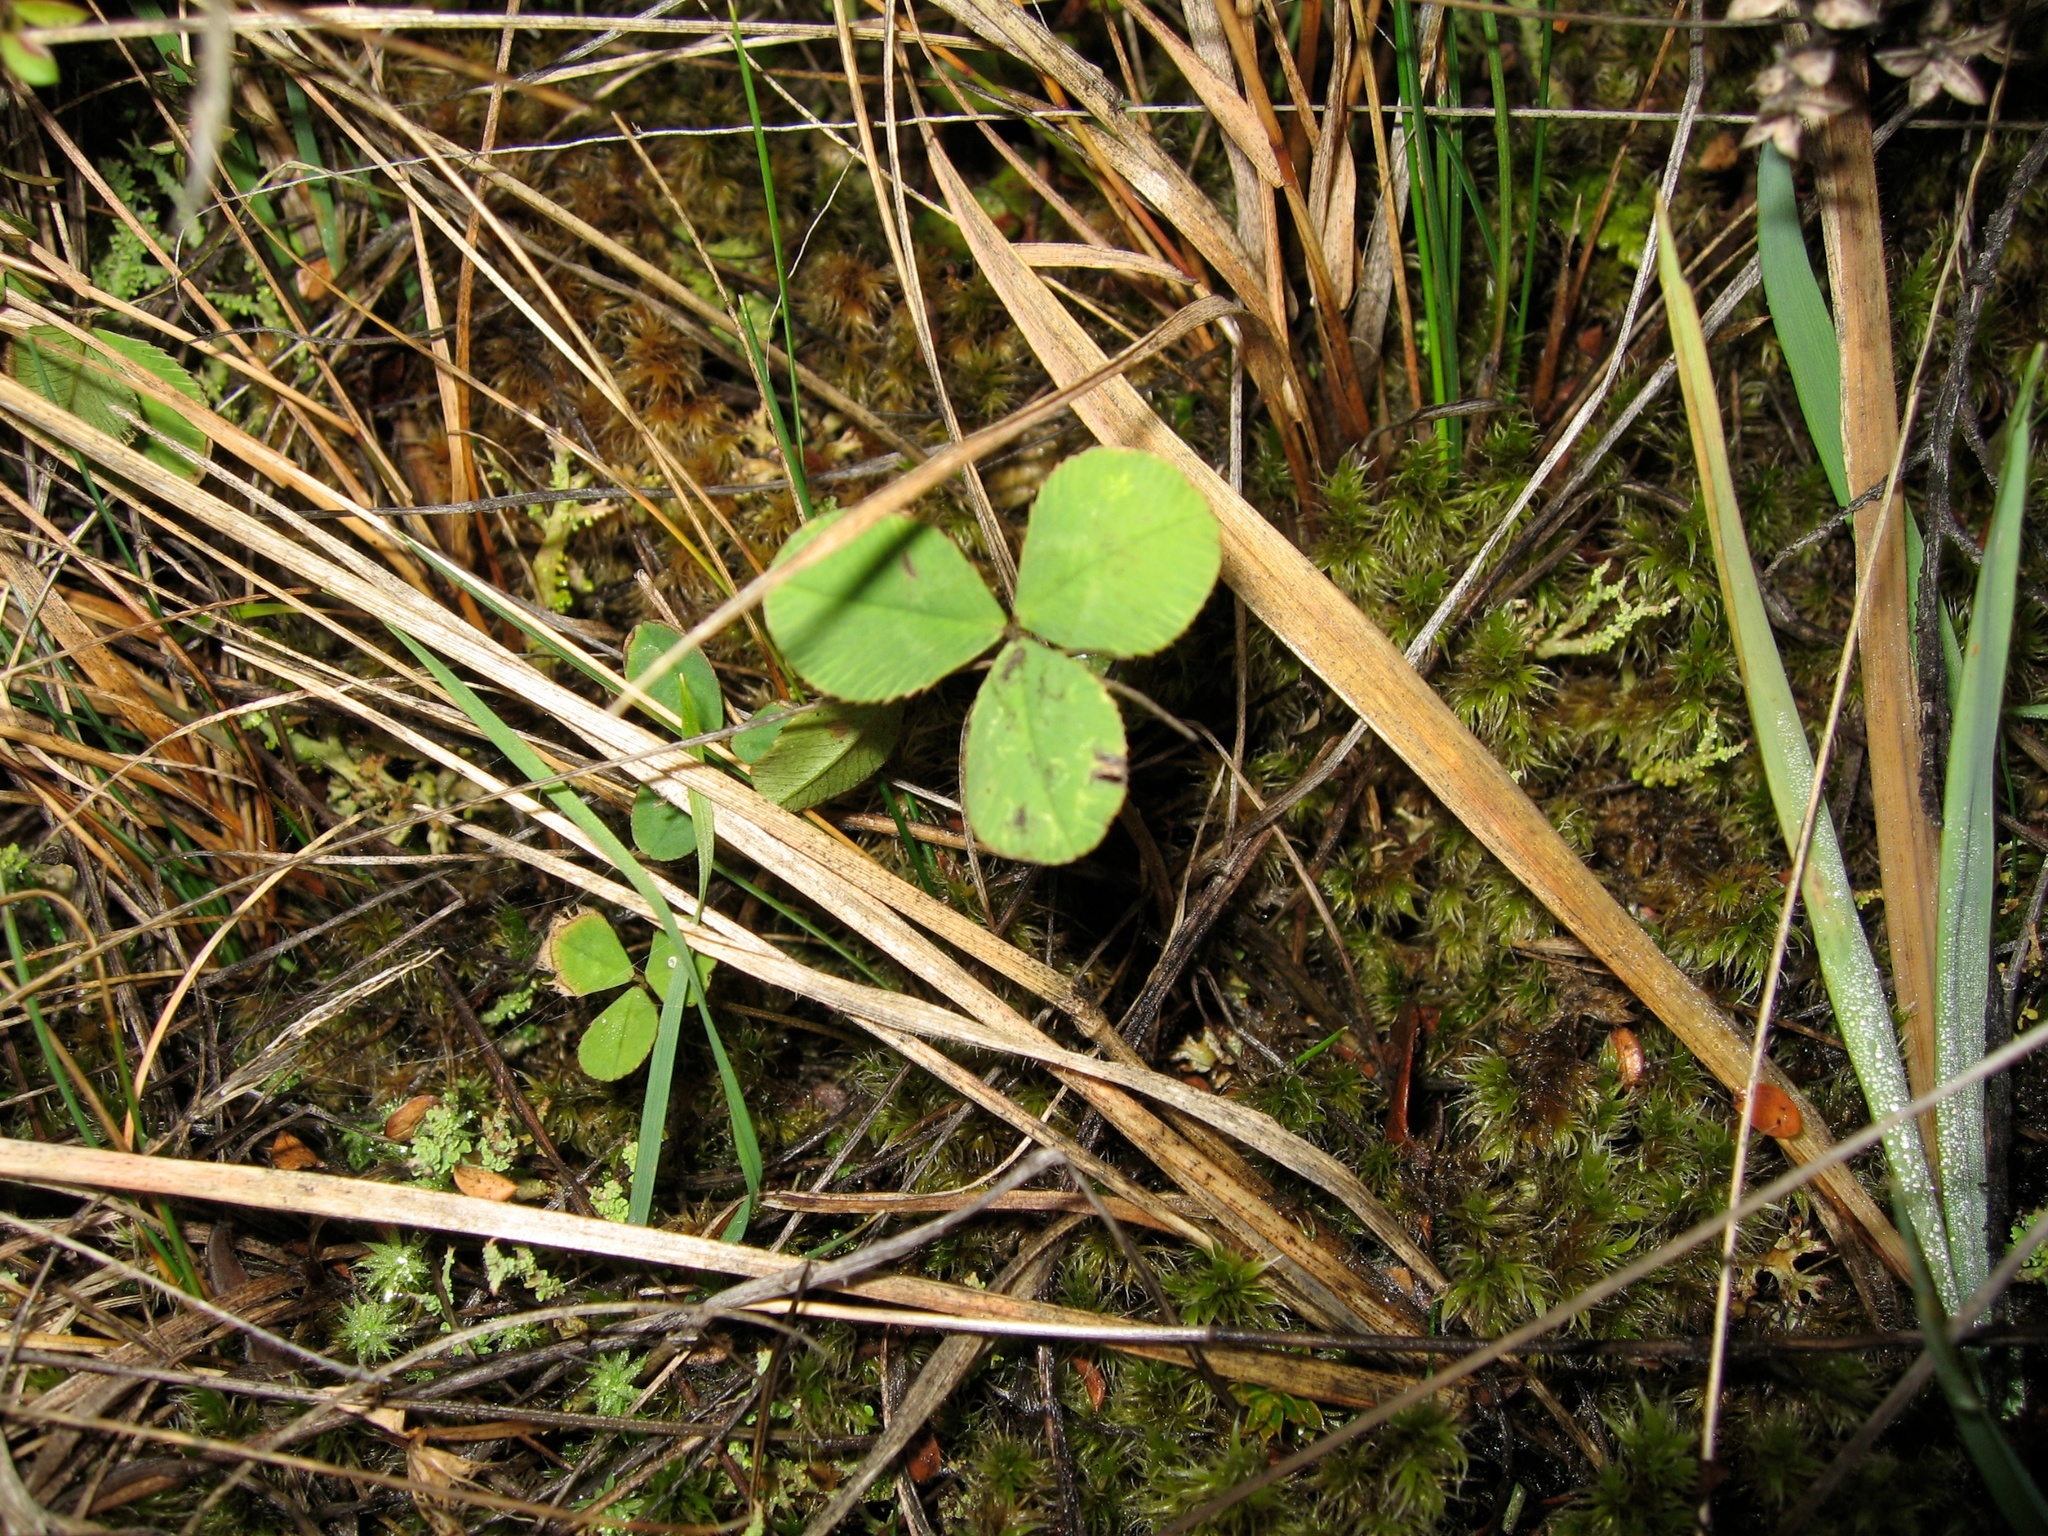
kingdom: Plantae
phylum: Tracheophyta
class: Magnoliopsida
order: Fabales
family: Fabaceae
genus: Trifolium
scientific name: Trifolium repens
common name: White clover
